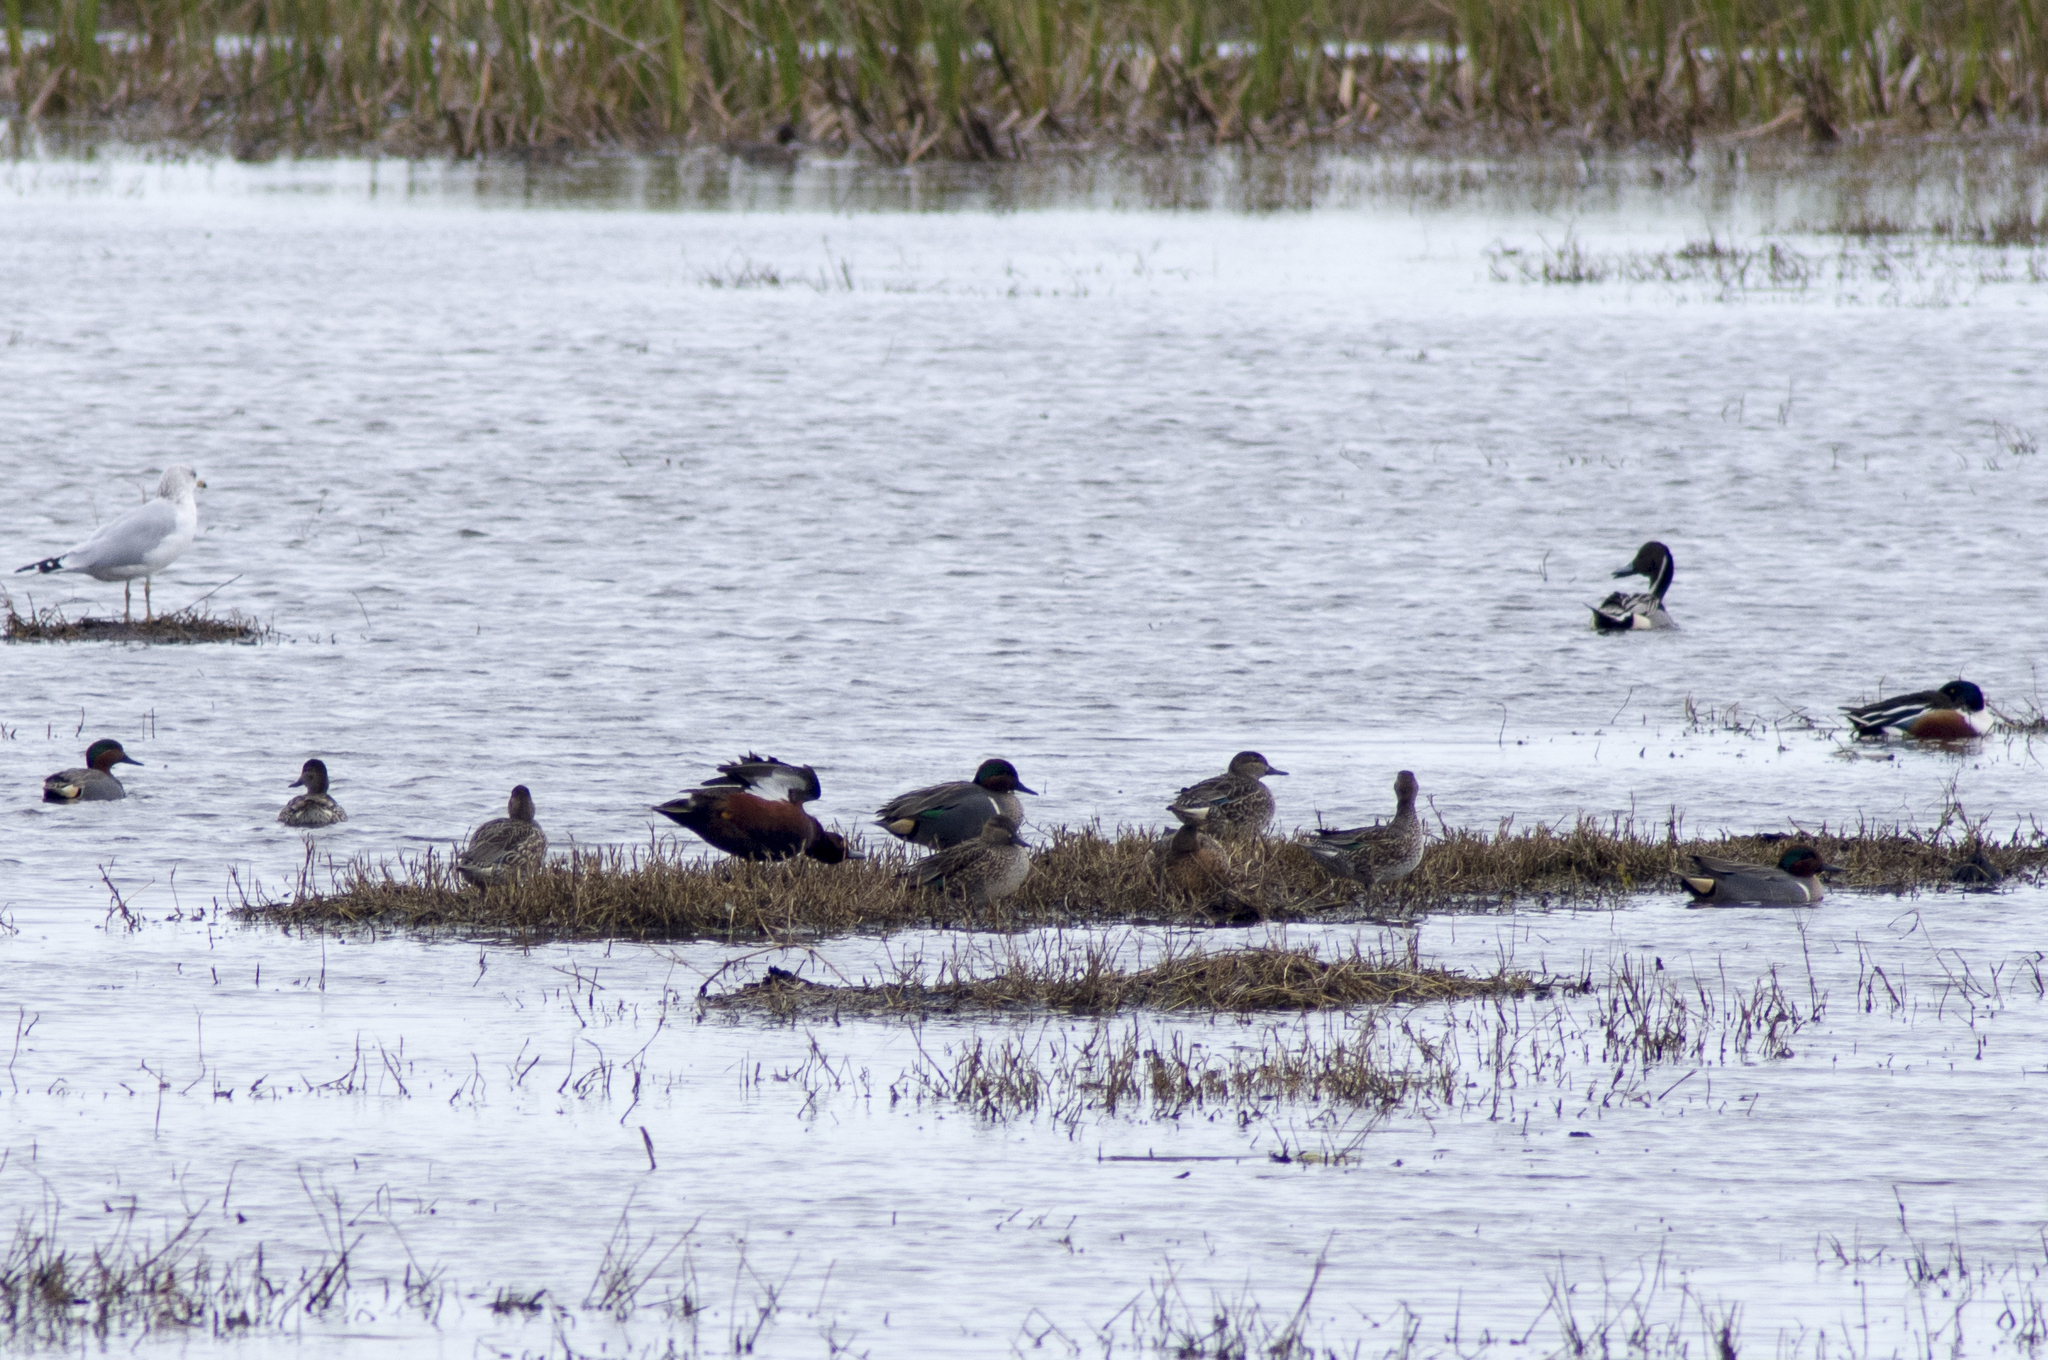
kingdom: Animalia
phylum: Chordata
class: Aves
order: Anseriformes
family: Anatidae
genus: Spatula
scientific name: Spatula cyanoptera
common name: Cinnamon teal
